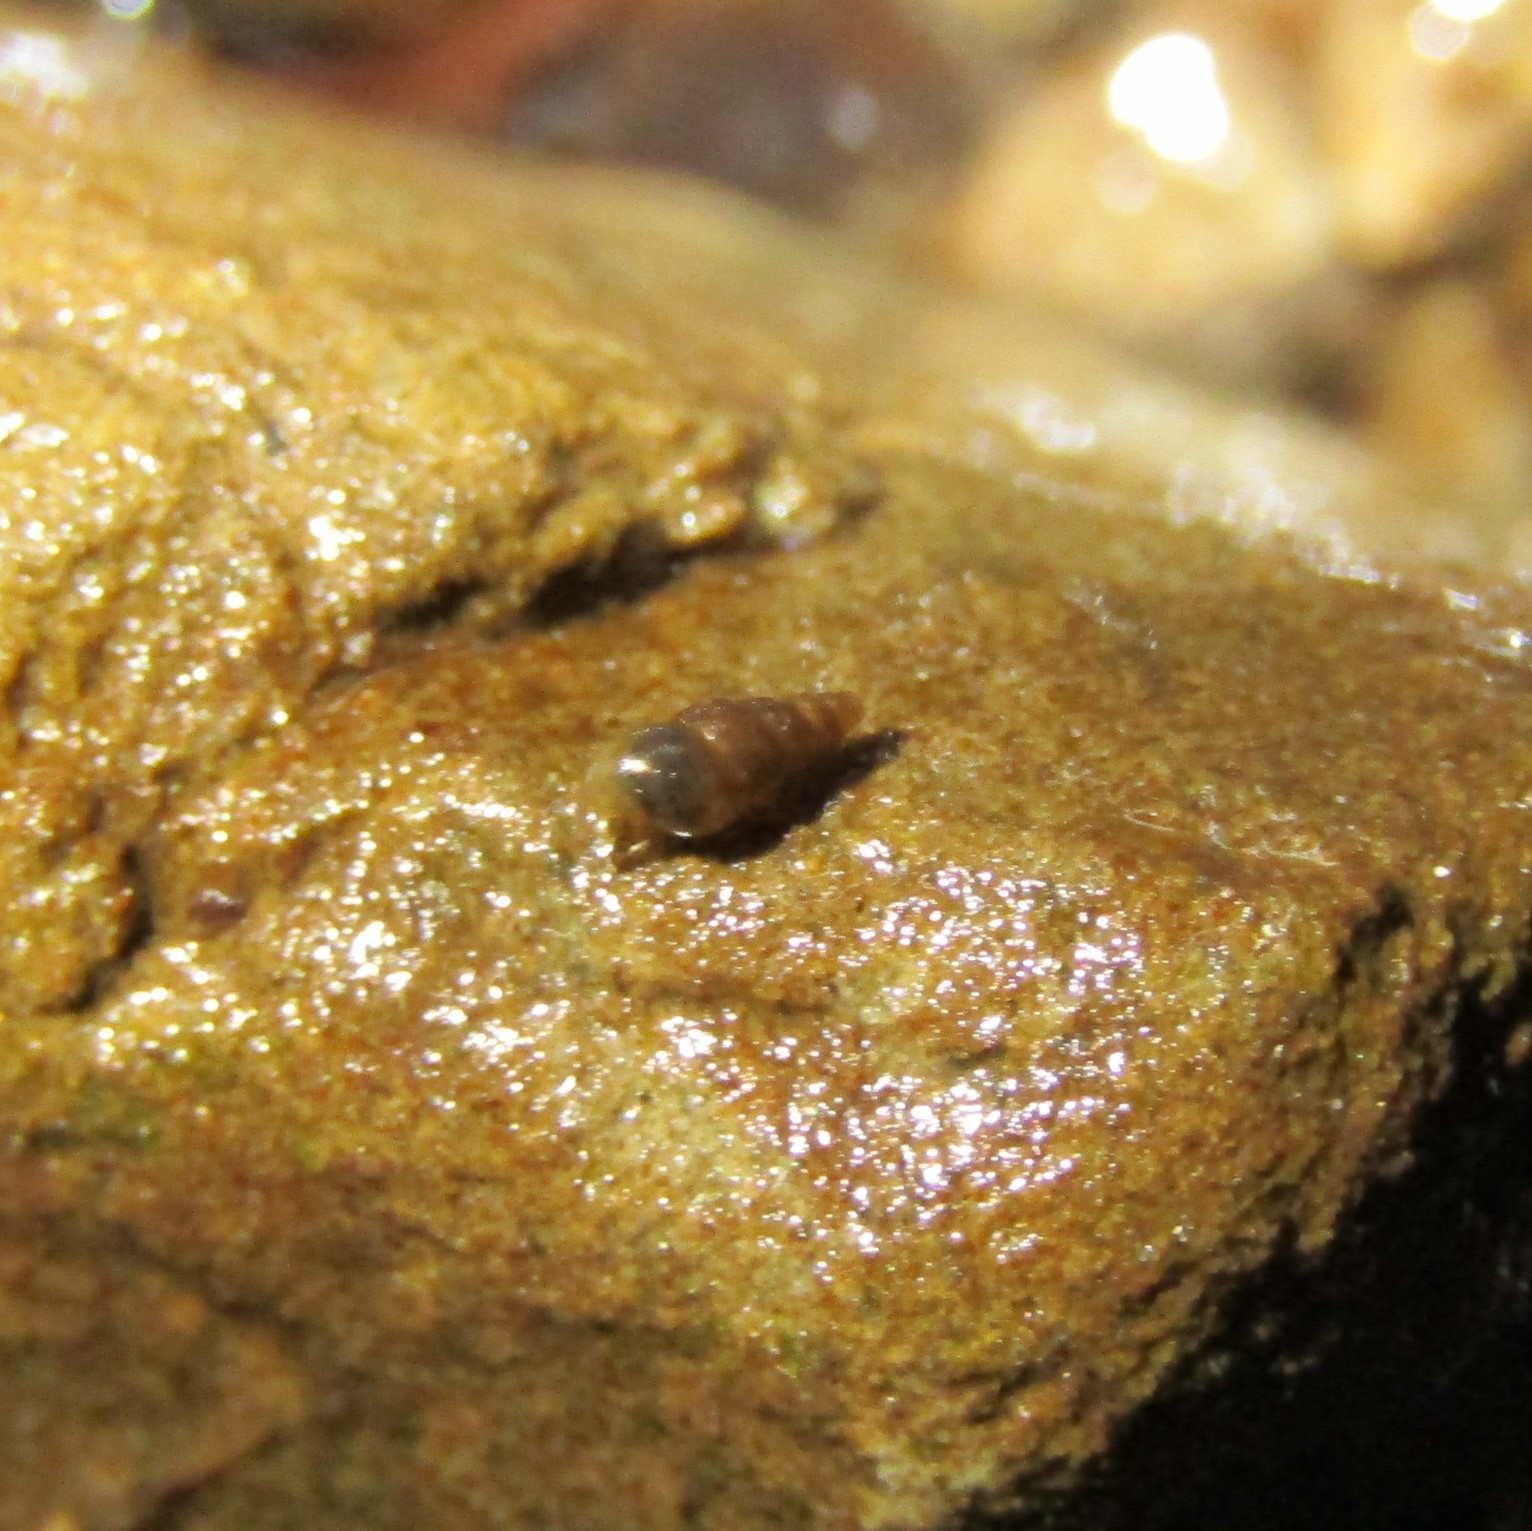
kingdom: Animalia
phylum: Mollusca
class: Gastropoda
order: Littorinimorpha
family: Tateidae
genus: Potamopyrgus
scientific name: Potamopyrgus oppidanus
